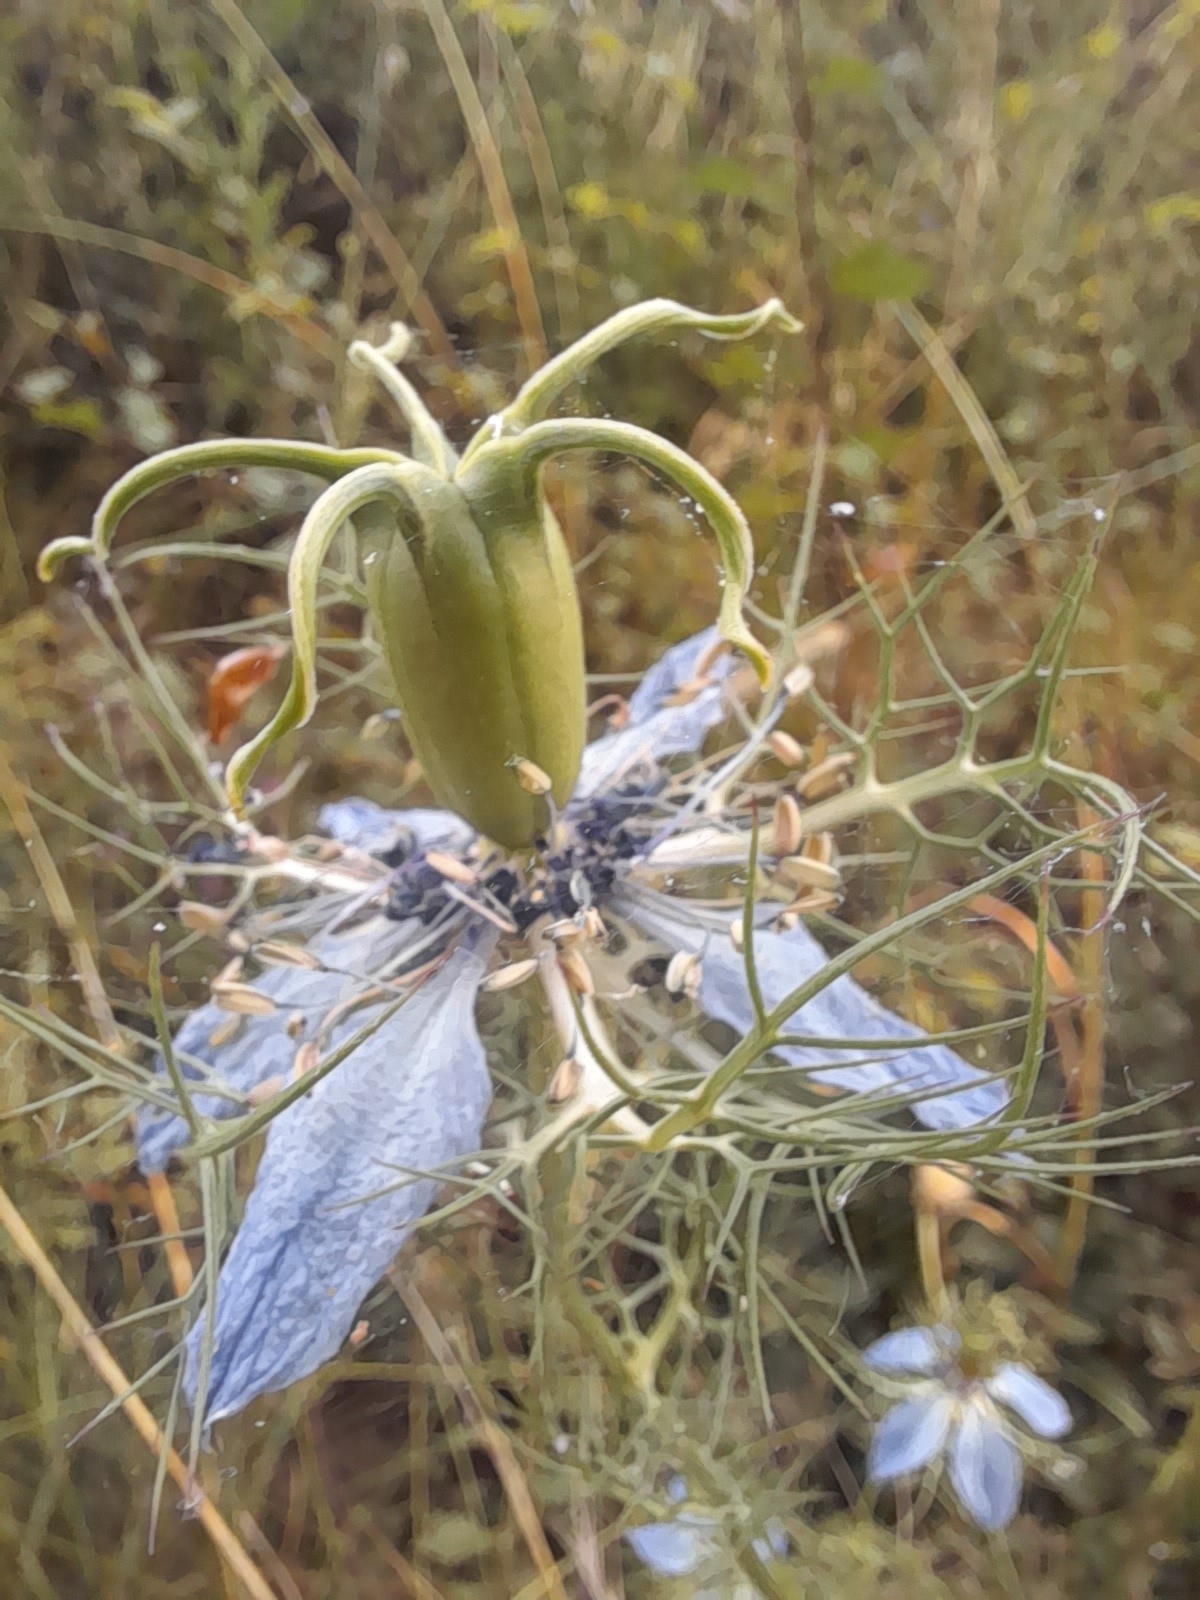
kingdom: Plantae
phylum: Tracheophyta
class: Magnoliopsida
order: Ranunculales
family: Ranunculaceae
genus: Nigella
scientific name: Nigella damascena
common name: Love-in-a-mist
